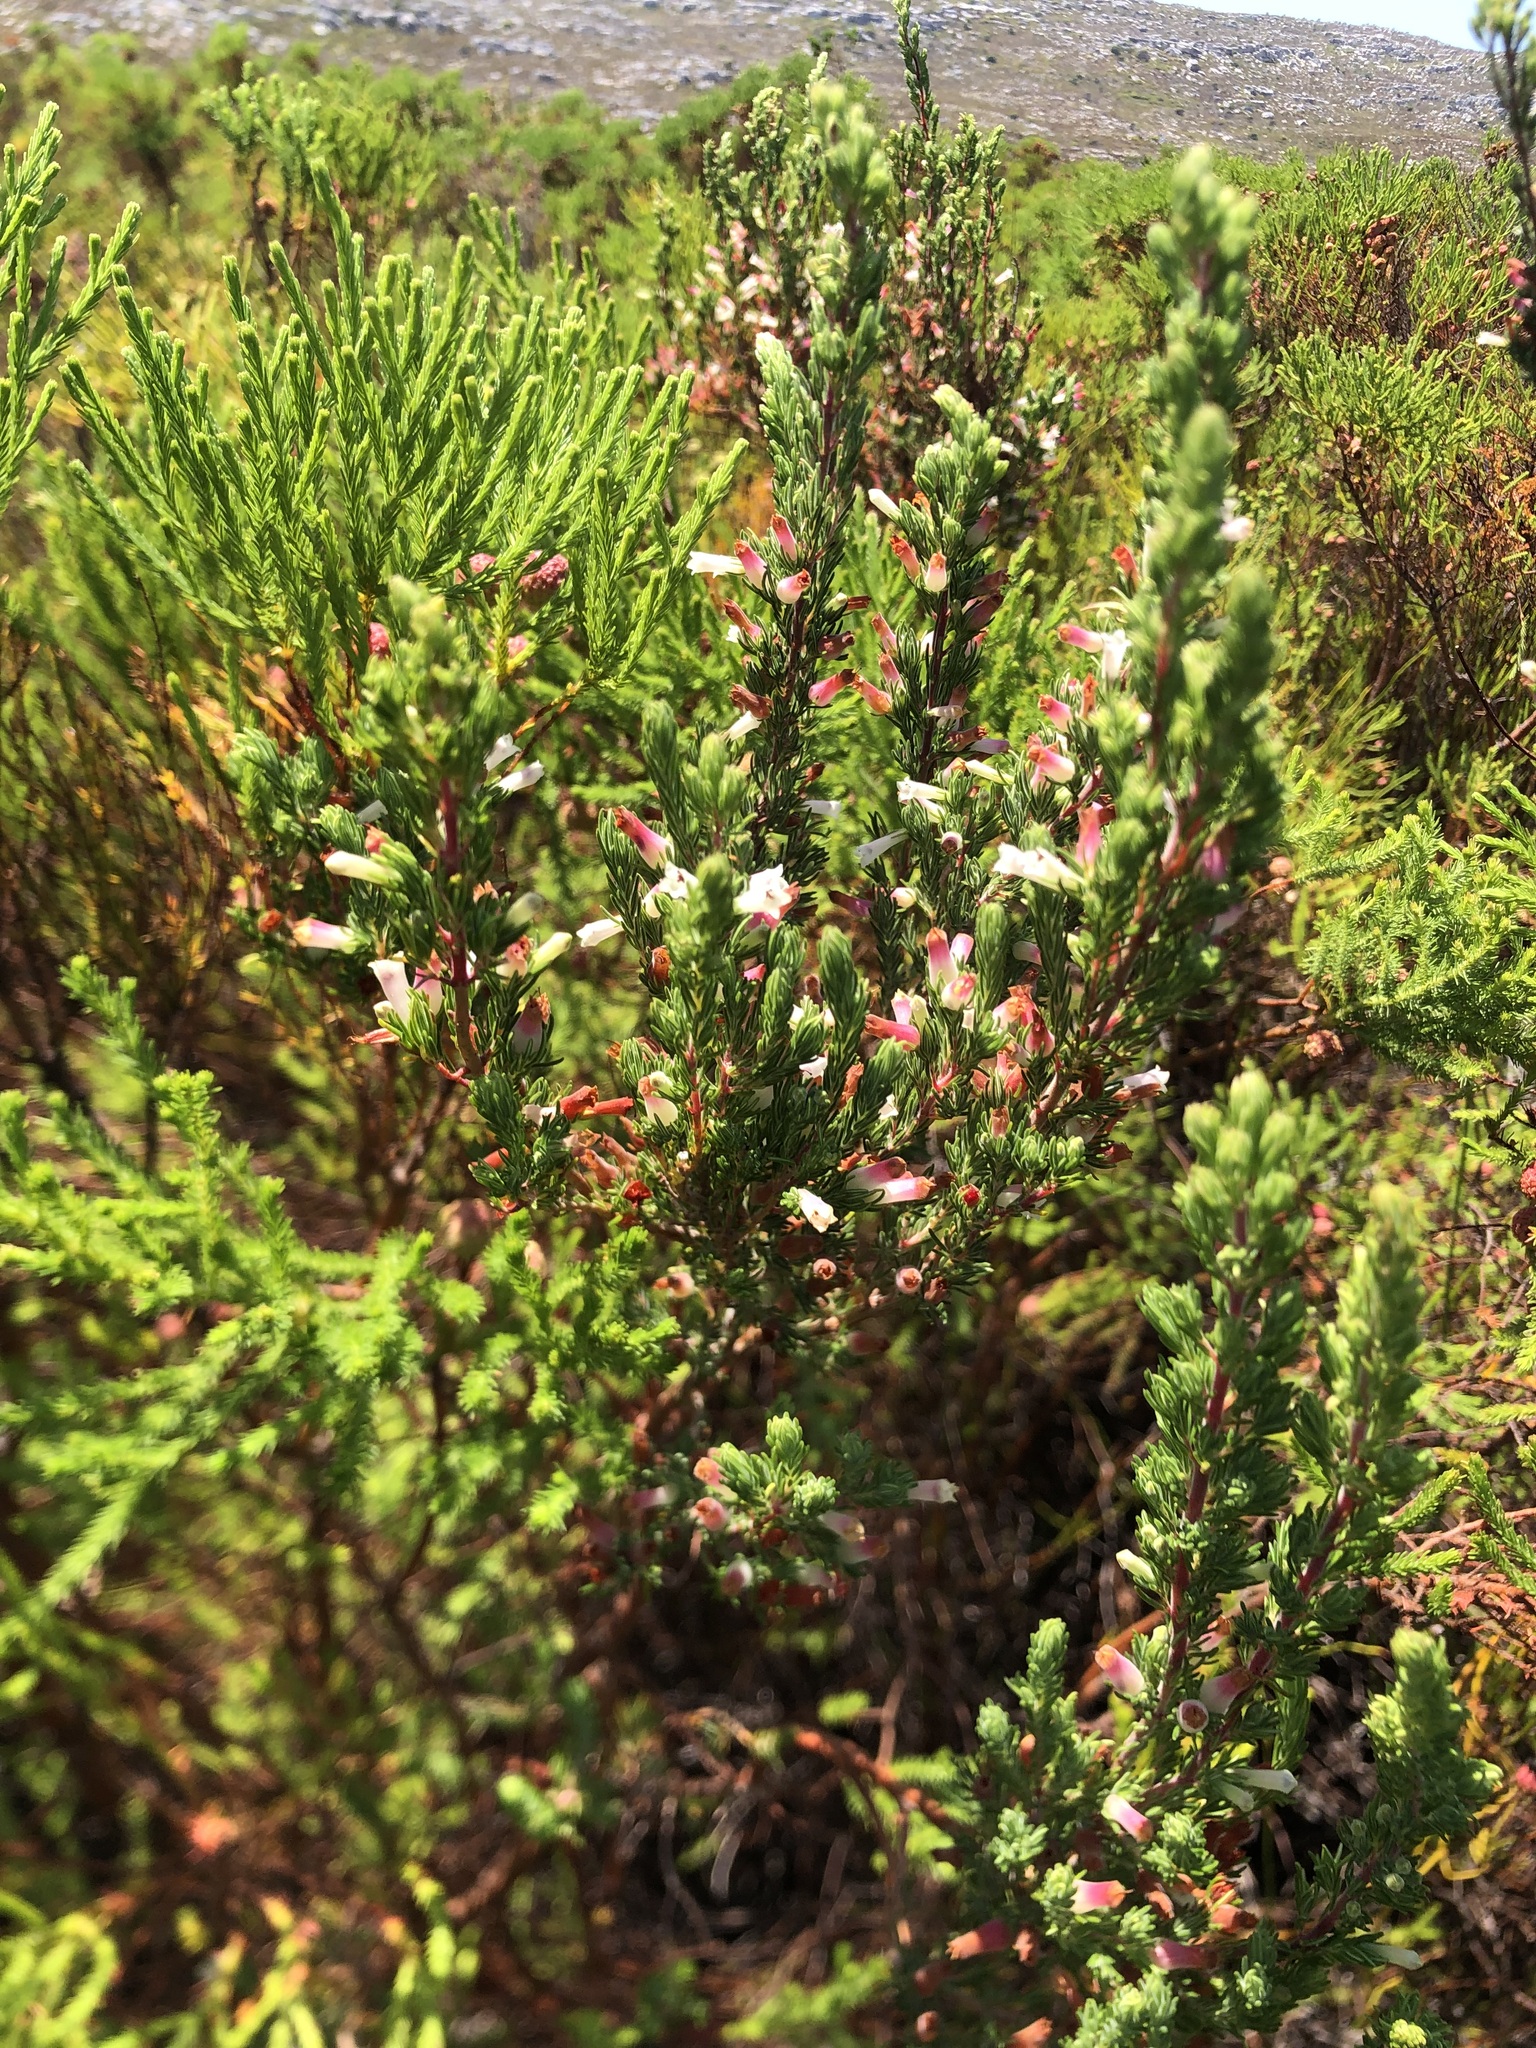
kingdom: Plantae
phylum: Tracheophyta
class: Magnoliopsida
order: Ericales
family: Ericaceae
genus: Erica
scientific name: Erica fontana
